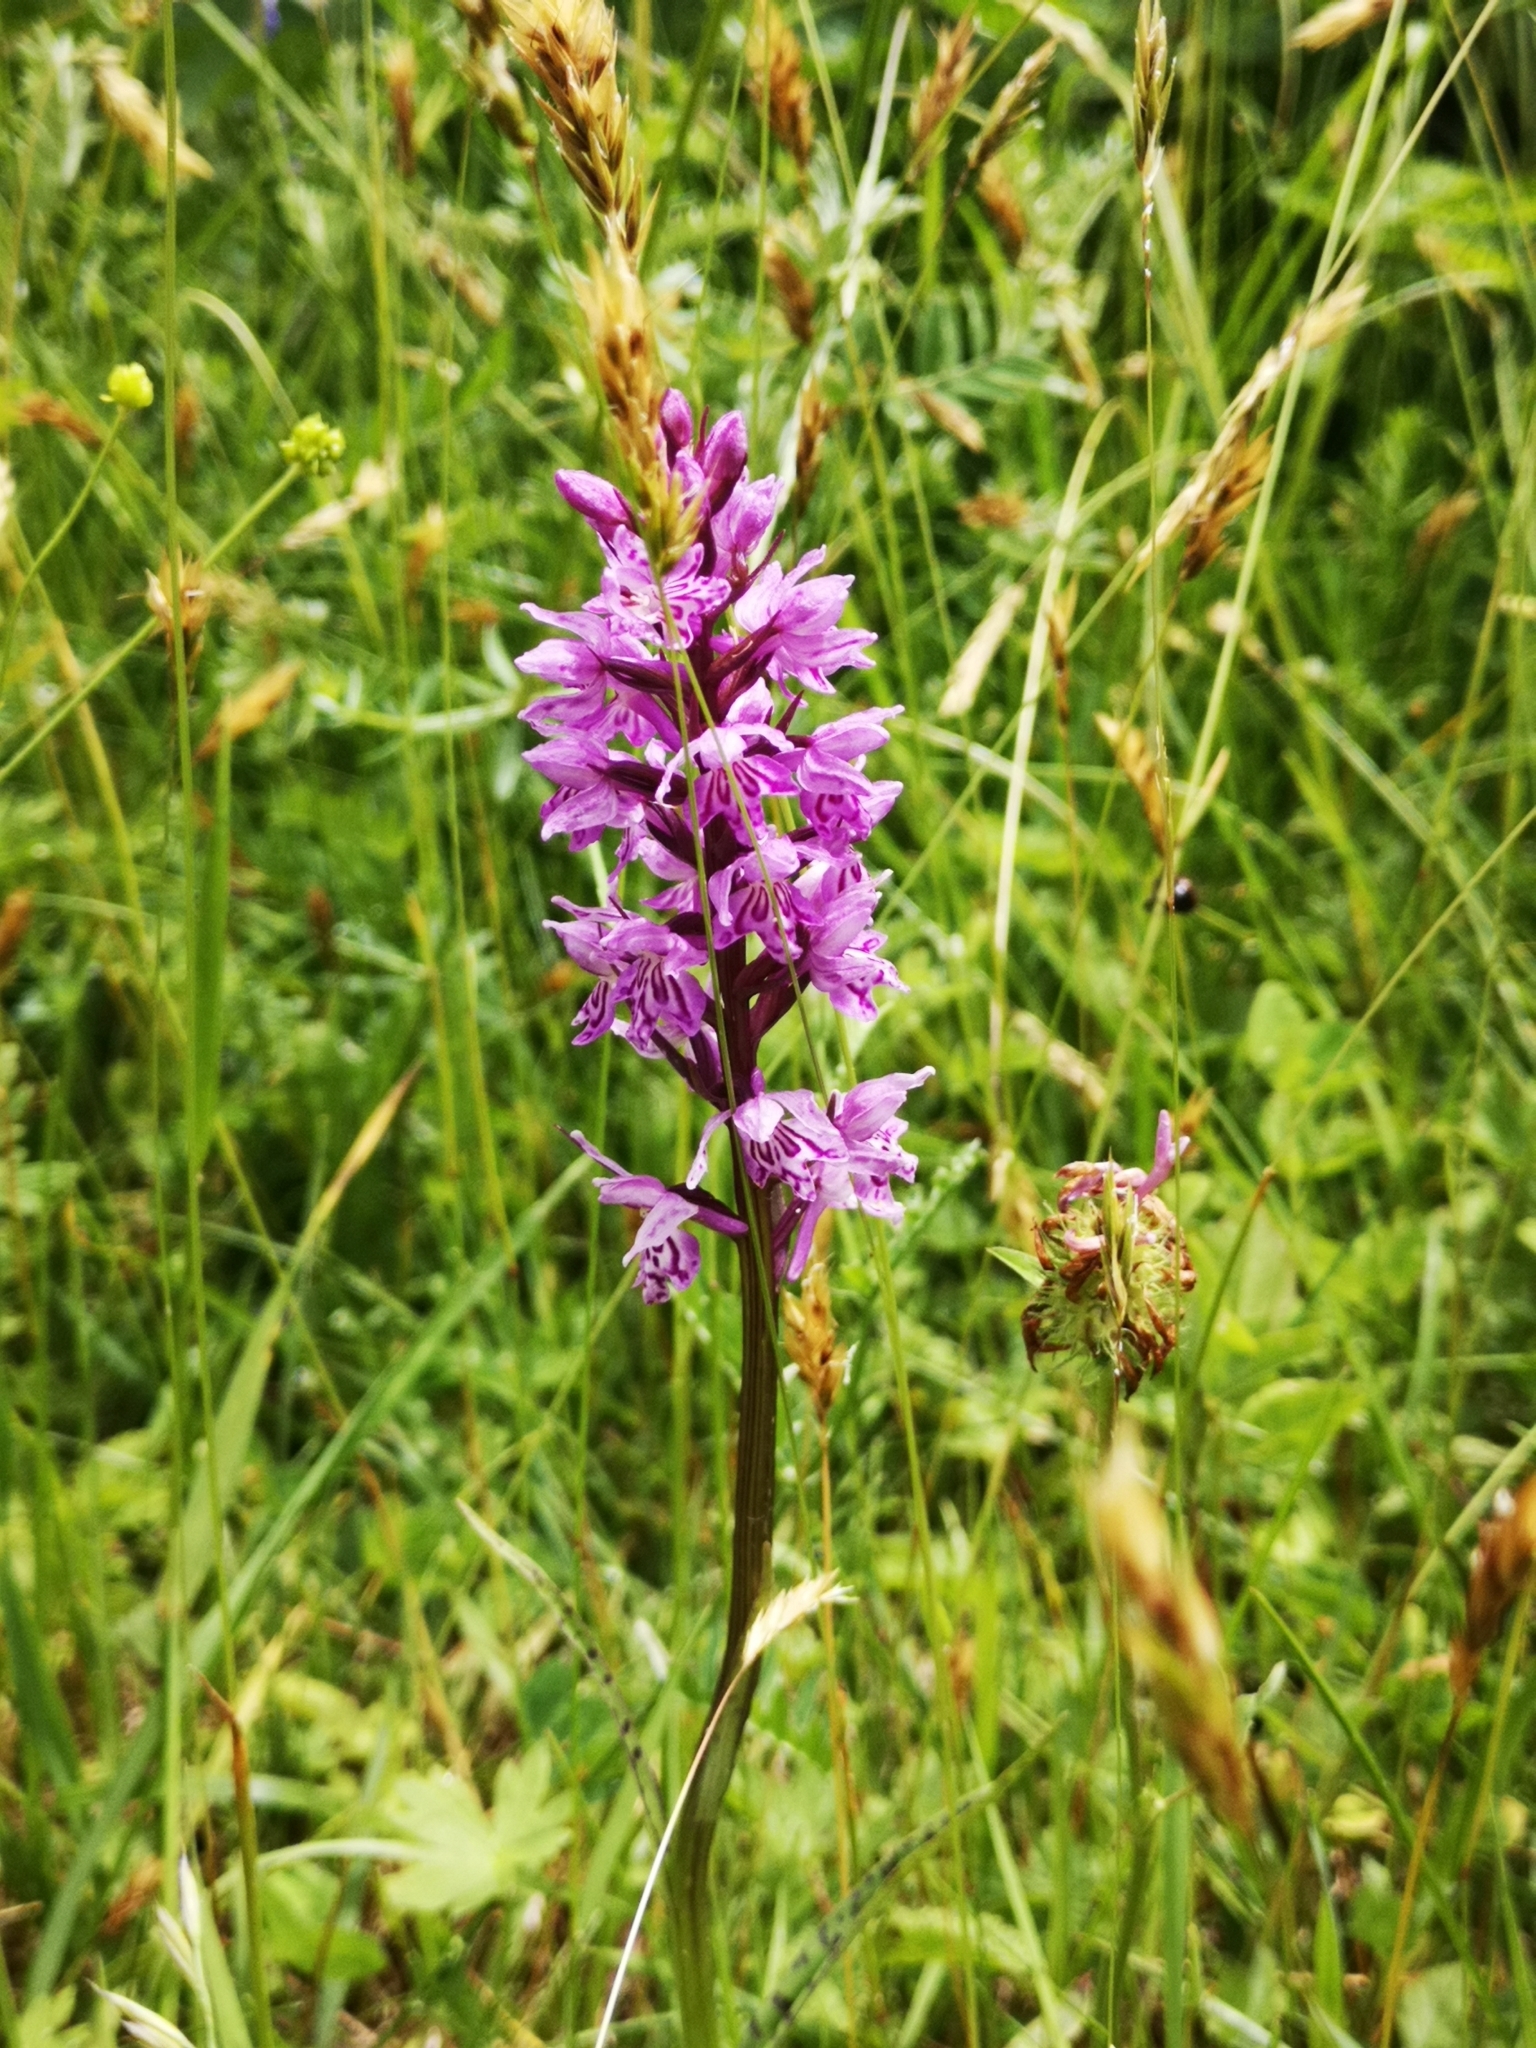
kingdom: Plantae
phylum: Tracheophyta
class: Liliopsida
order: Asparagales
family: Orchidaceae
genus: Dactylorhiza
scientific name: Dactylorhiza maculata
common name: Heath spotted-orchid
